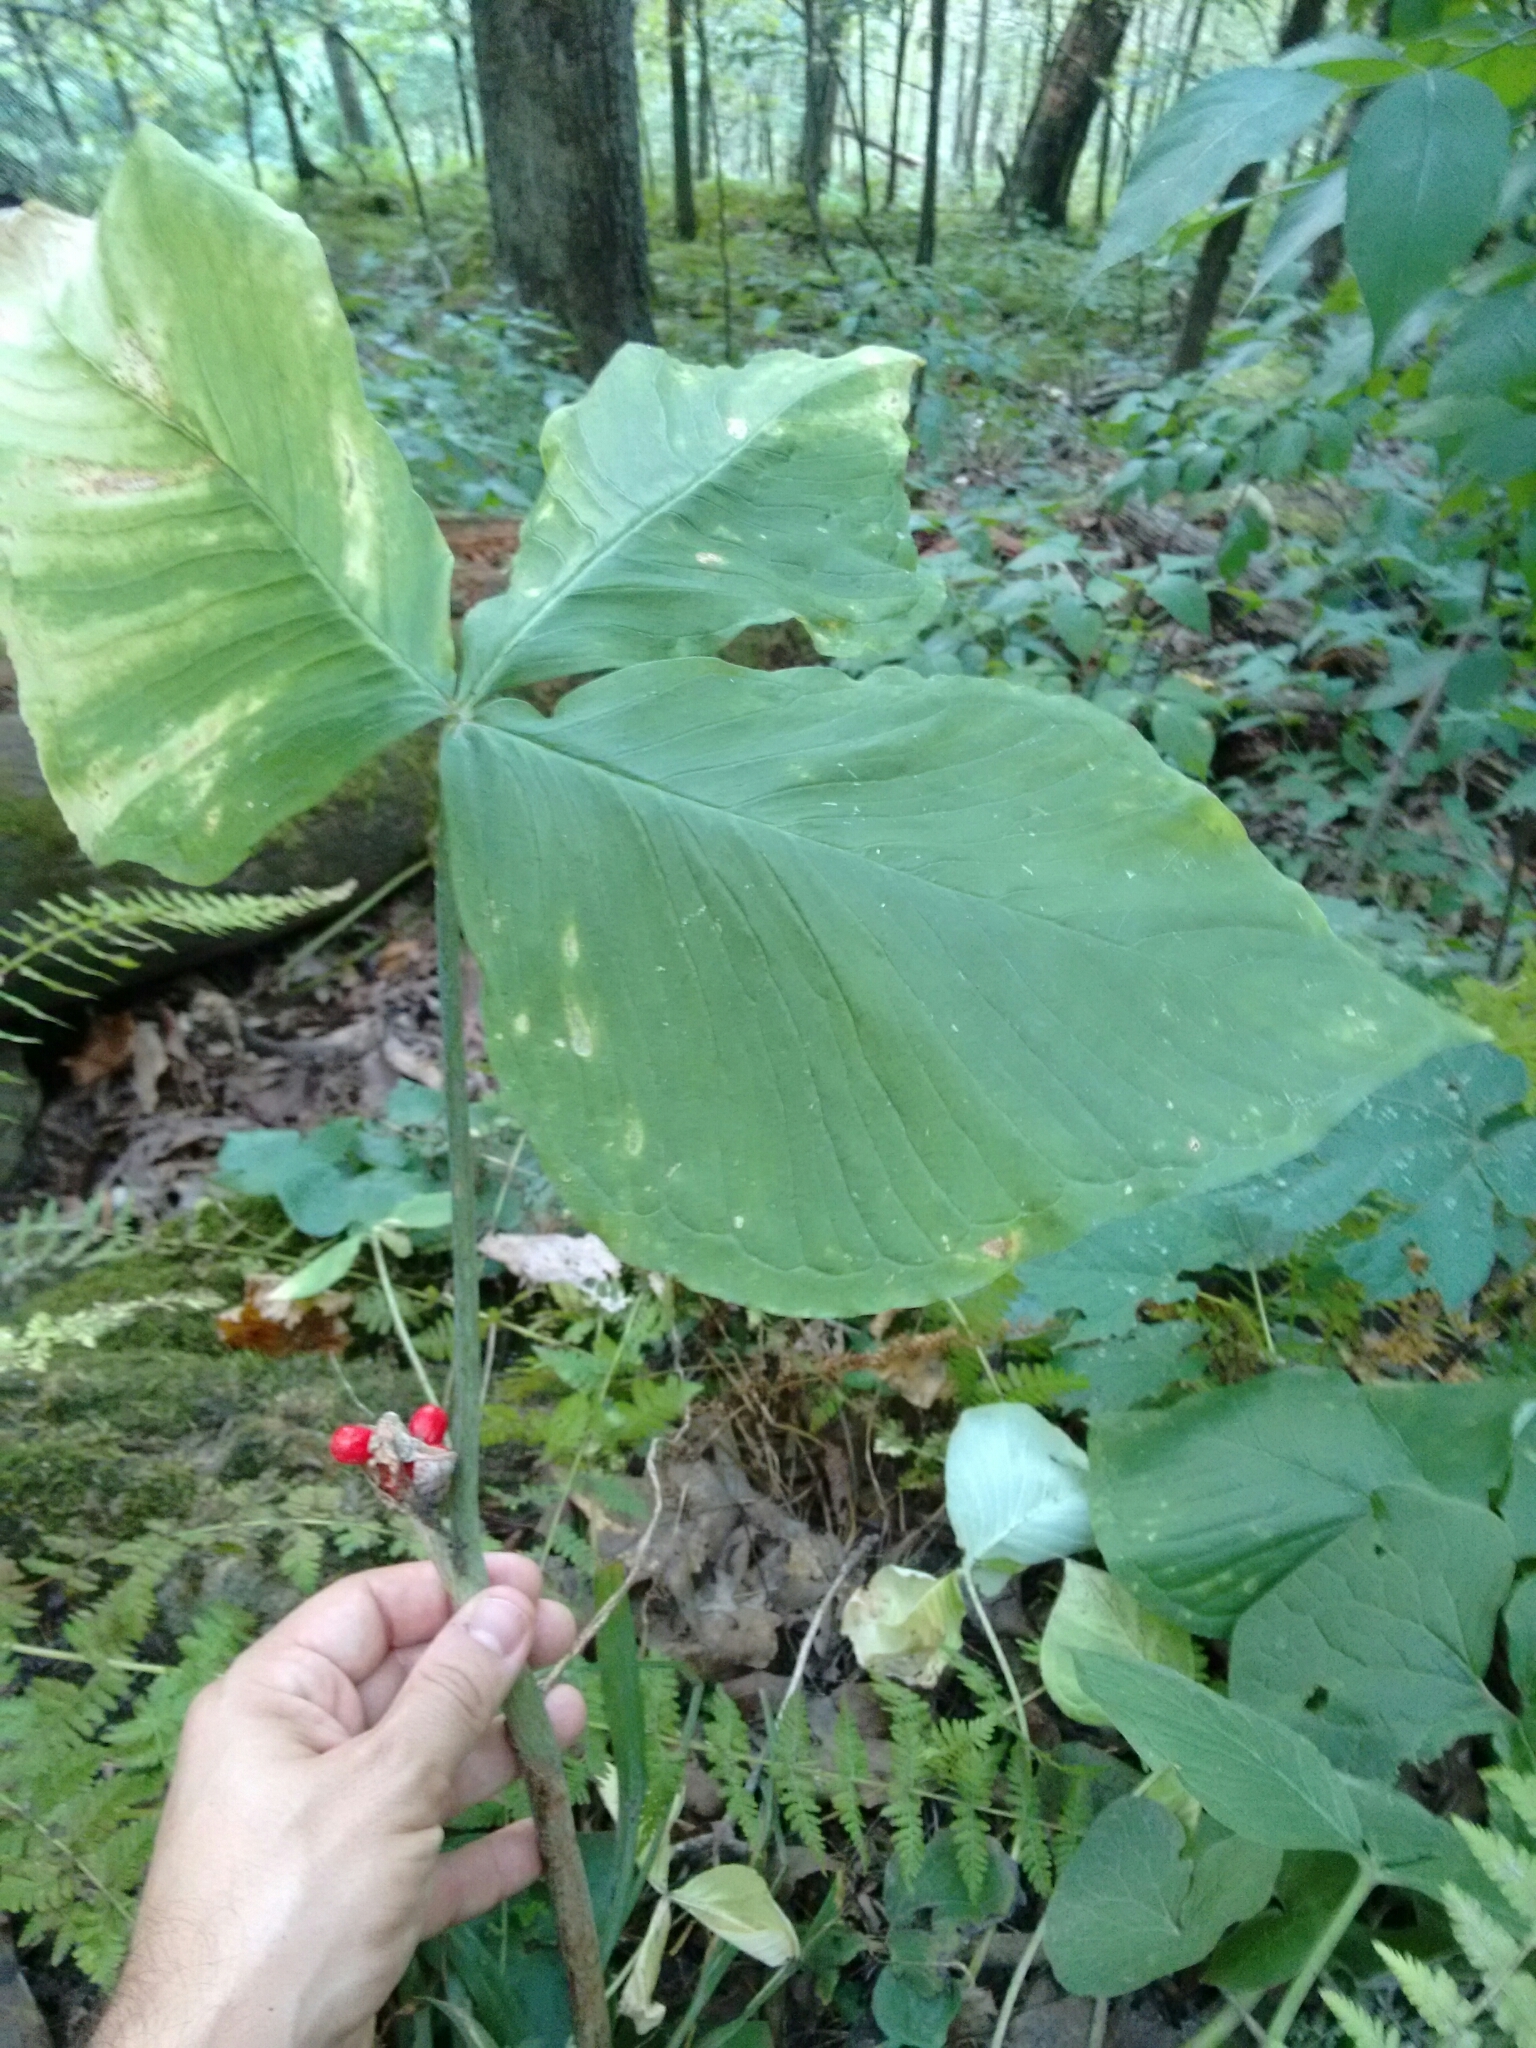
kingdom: Plantae
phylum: Tracheophyta
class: Liliopsida
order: Alismatales
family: Araceae
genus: Arisaema
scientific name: Arisaema triphyllum
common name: Jack-in-the-pulpit
